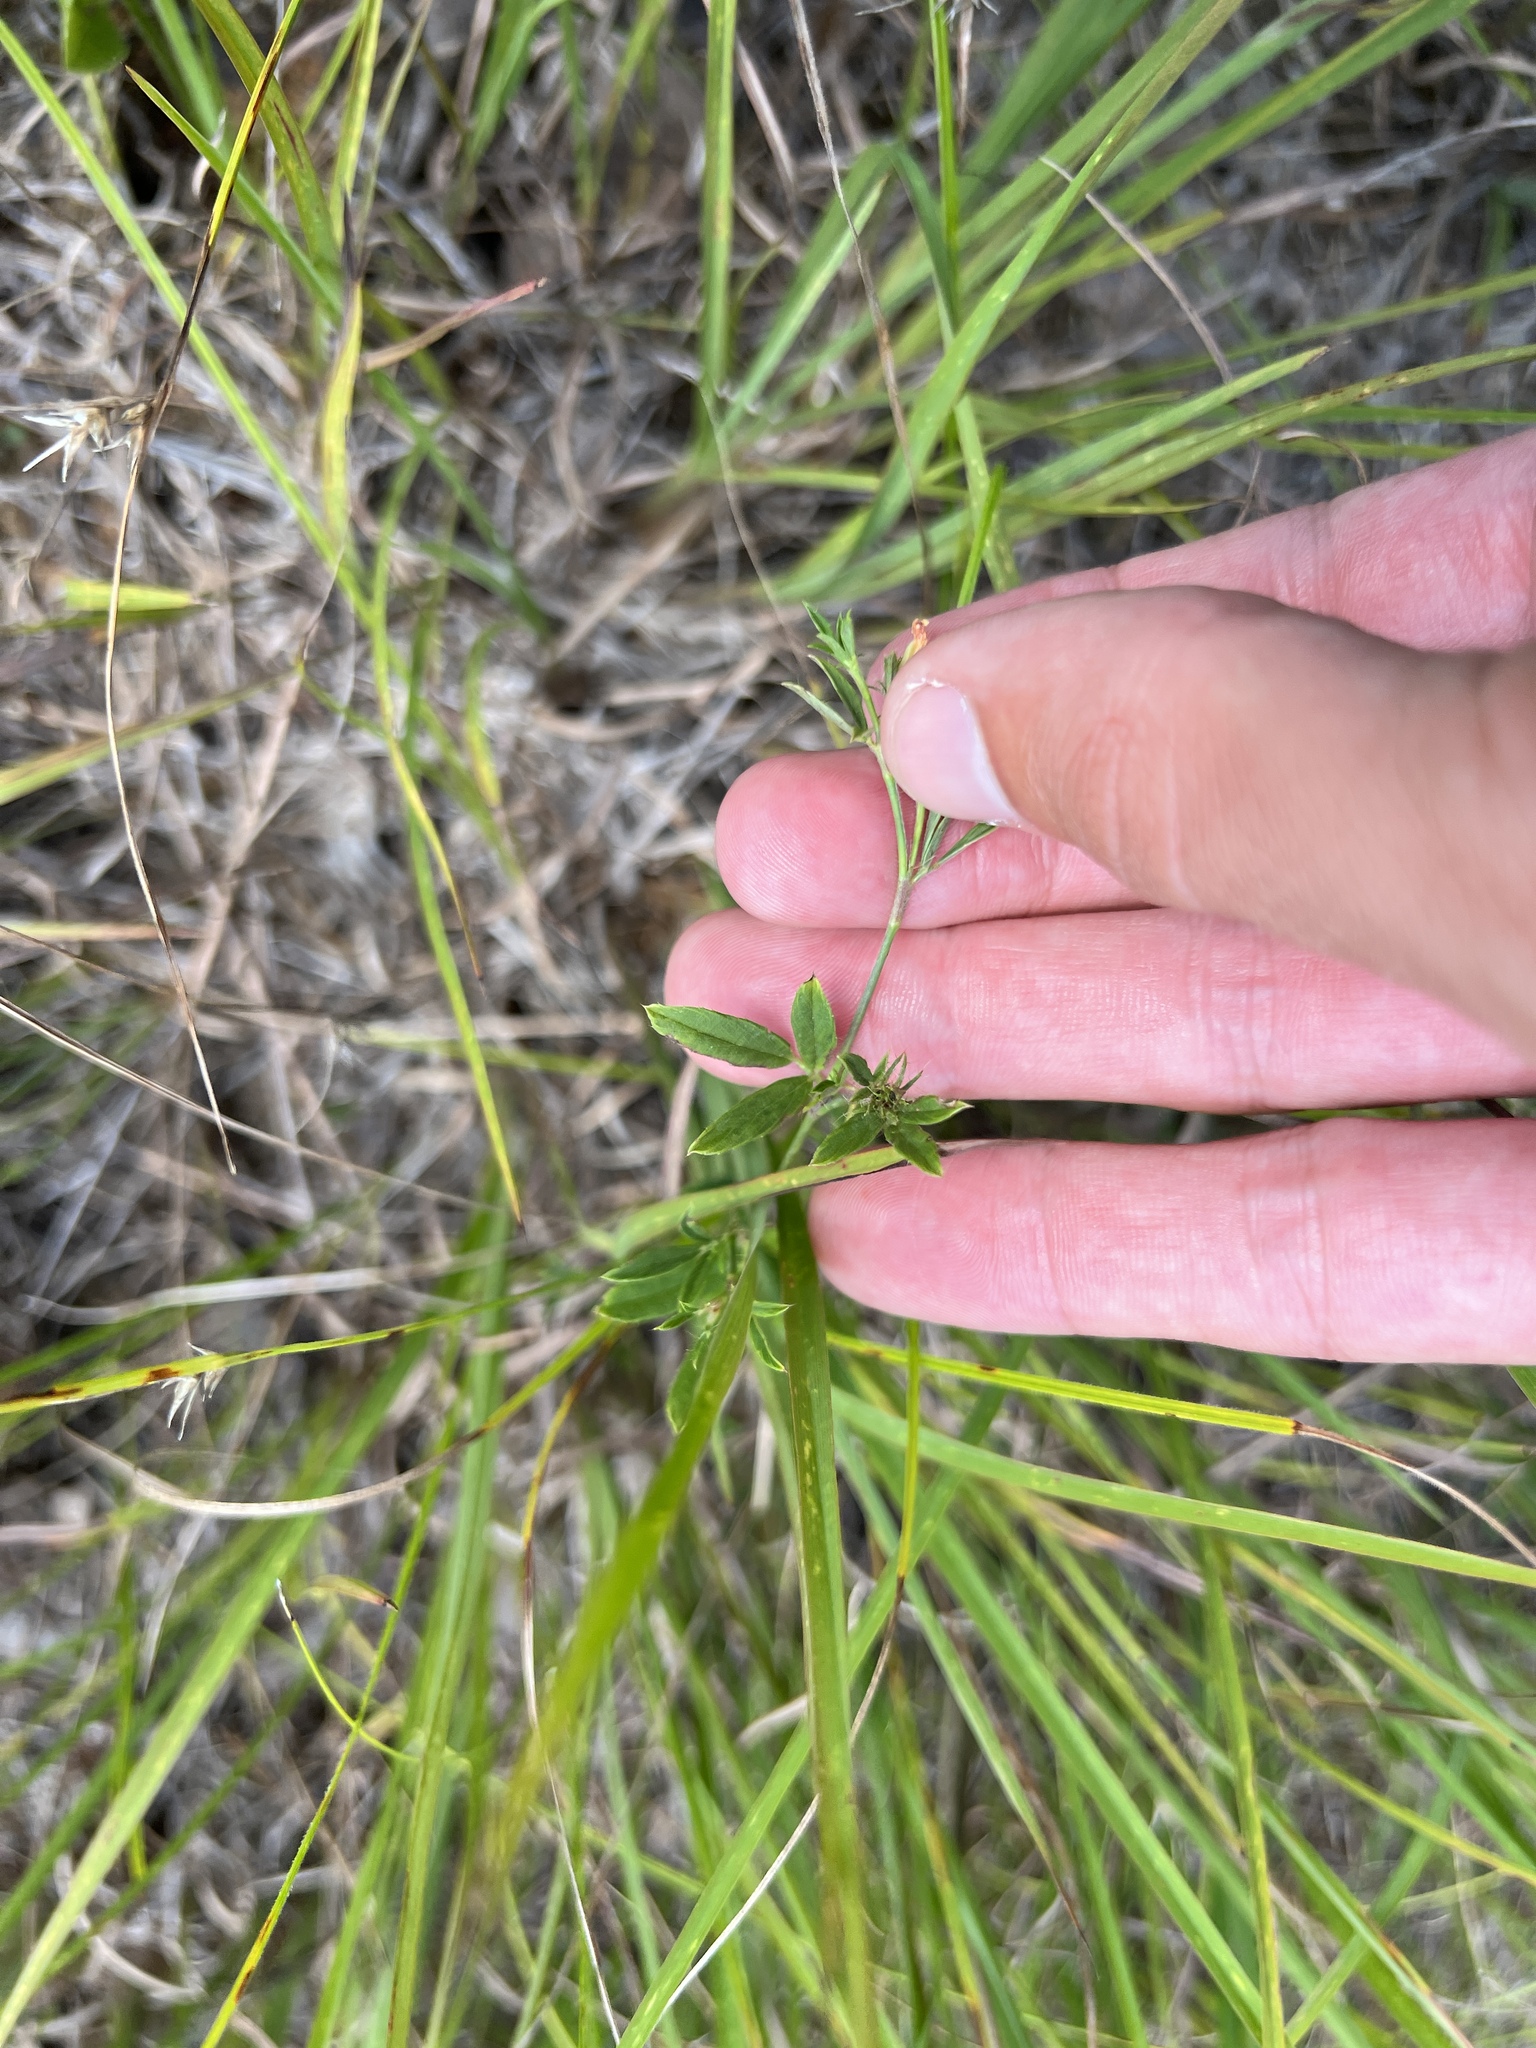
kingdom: Plantae
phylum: Tracheophyta
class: Magnoliopsida
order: Fabales
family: Fabaceae
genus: Stylosanthes
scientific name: Stylosanthes biflora
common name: Two-flower pencil-flower
